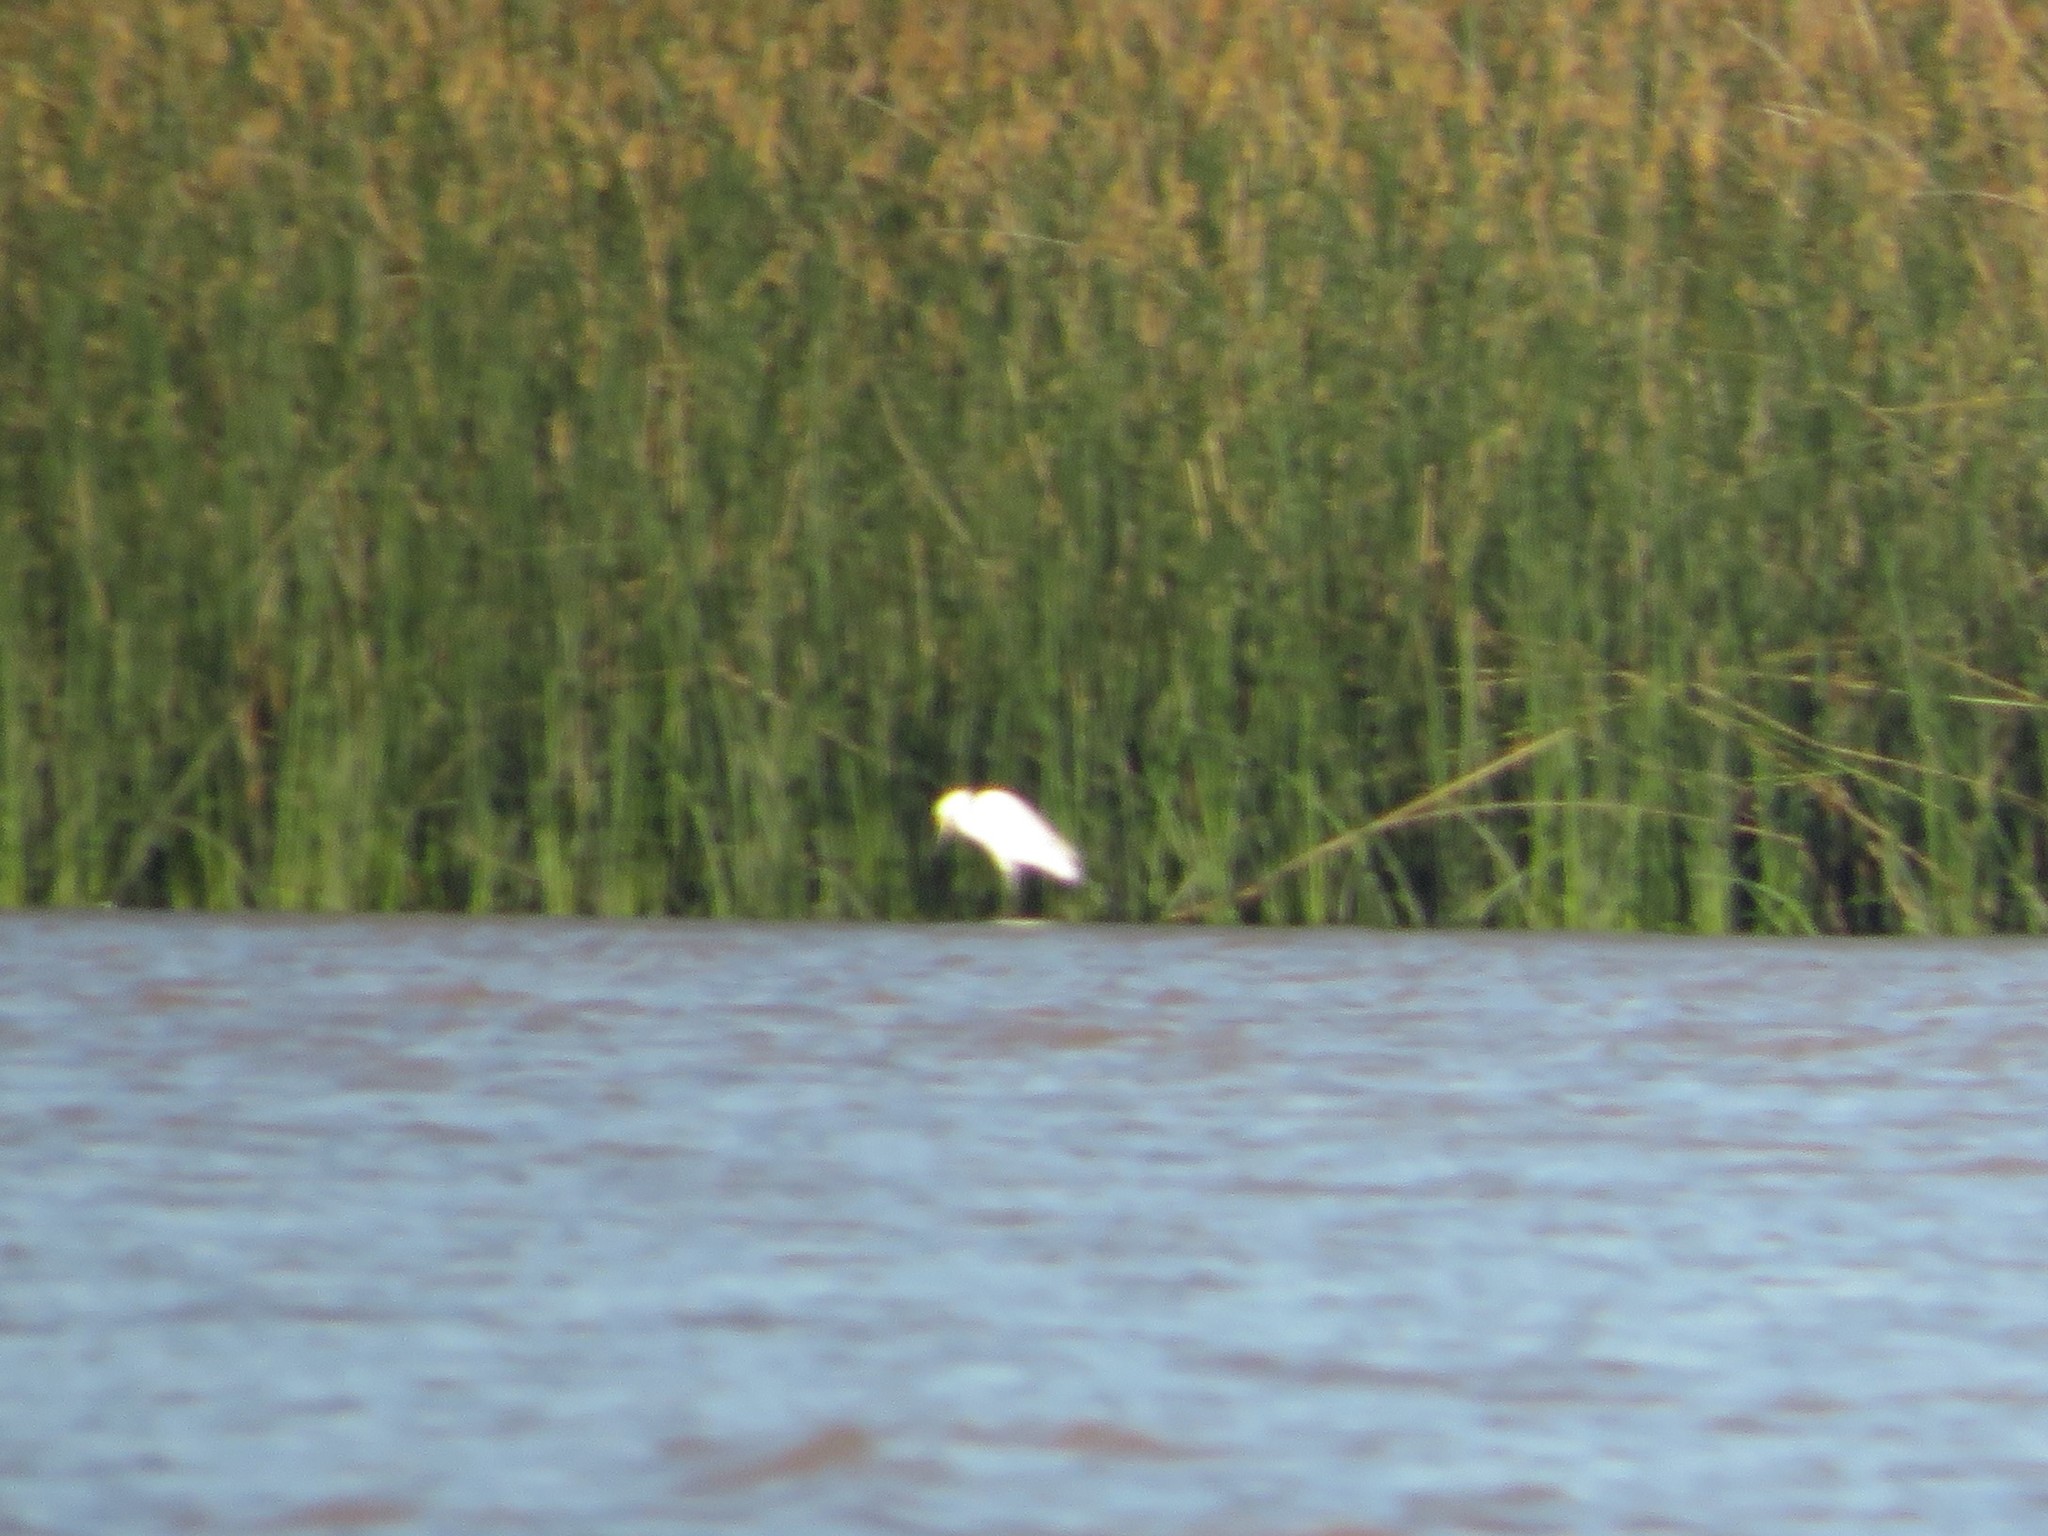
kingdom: Animalia
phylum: Chordata
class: Aves
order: Pelecaniformes
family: Ardeidae
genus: Egretta
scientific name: Egretta thula
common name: Snowy egret
